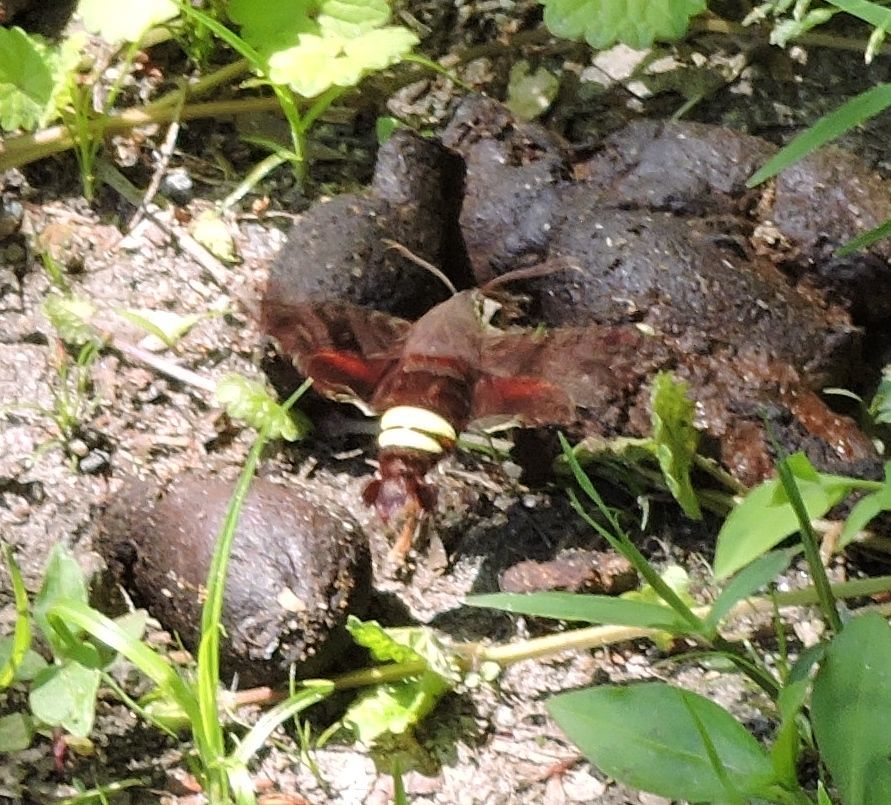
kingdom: Animalia
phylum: Arthropoda
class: Insecta
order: Lepidoptera
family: Sphingidae
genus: Amphion
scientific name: Amphion floridensis
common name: Nessus sphinx
